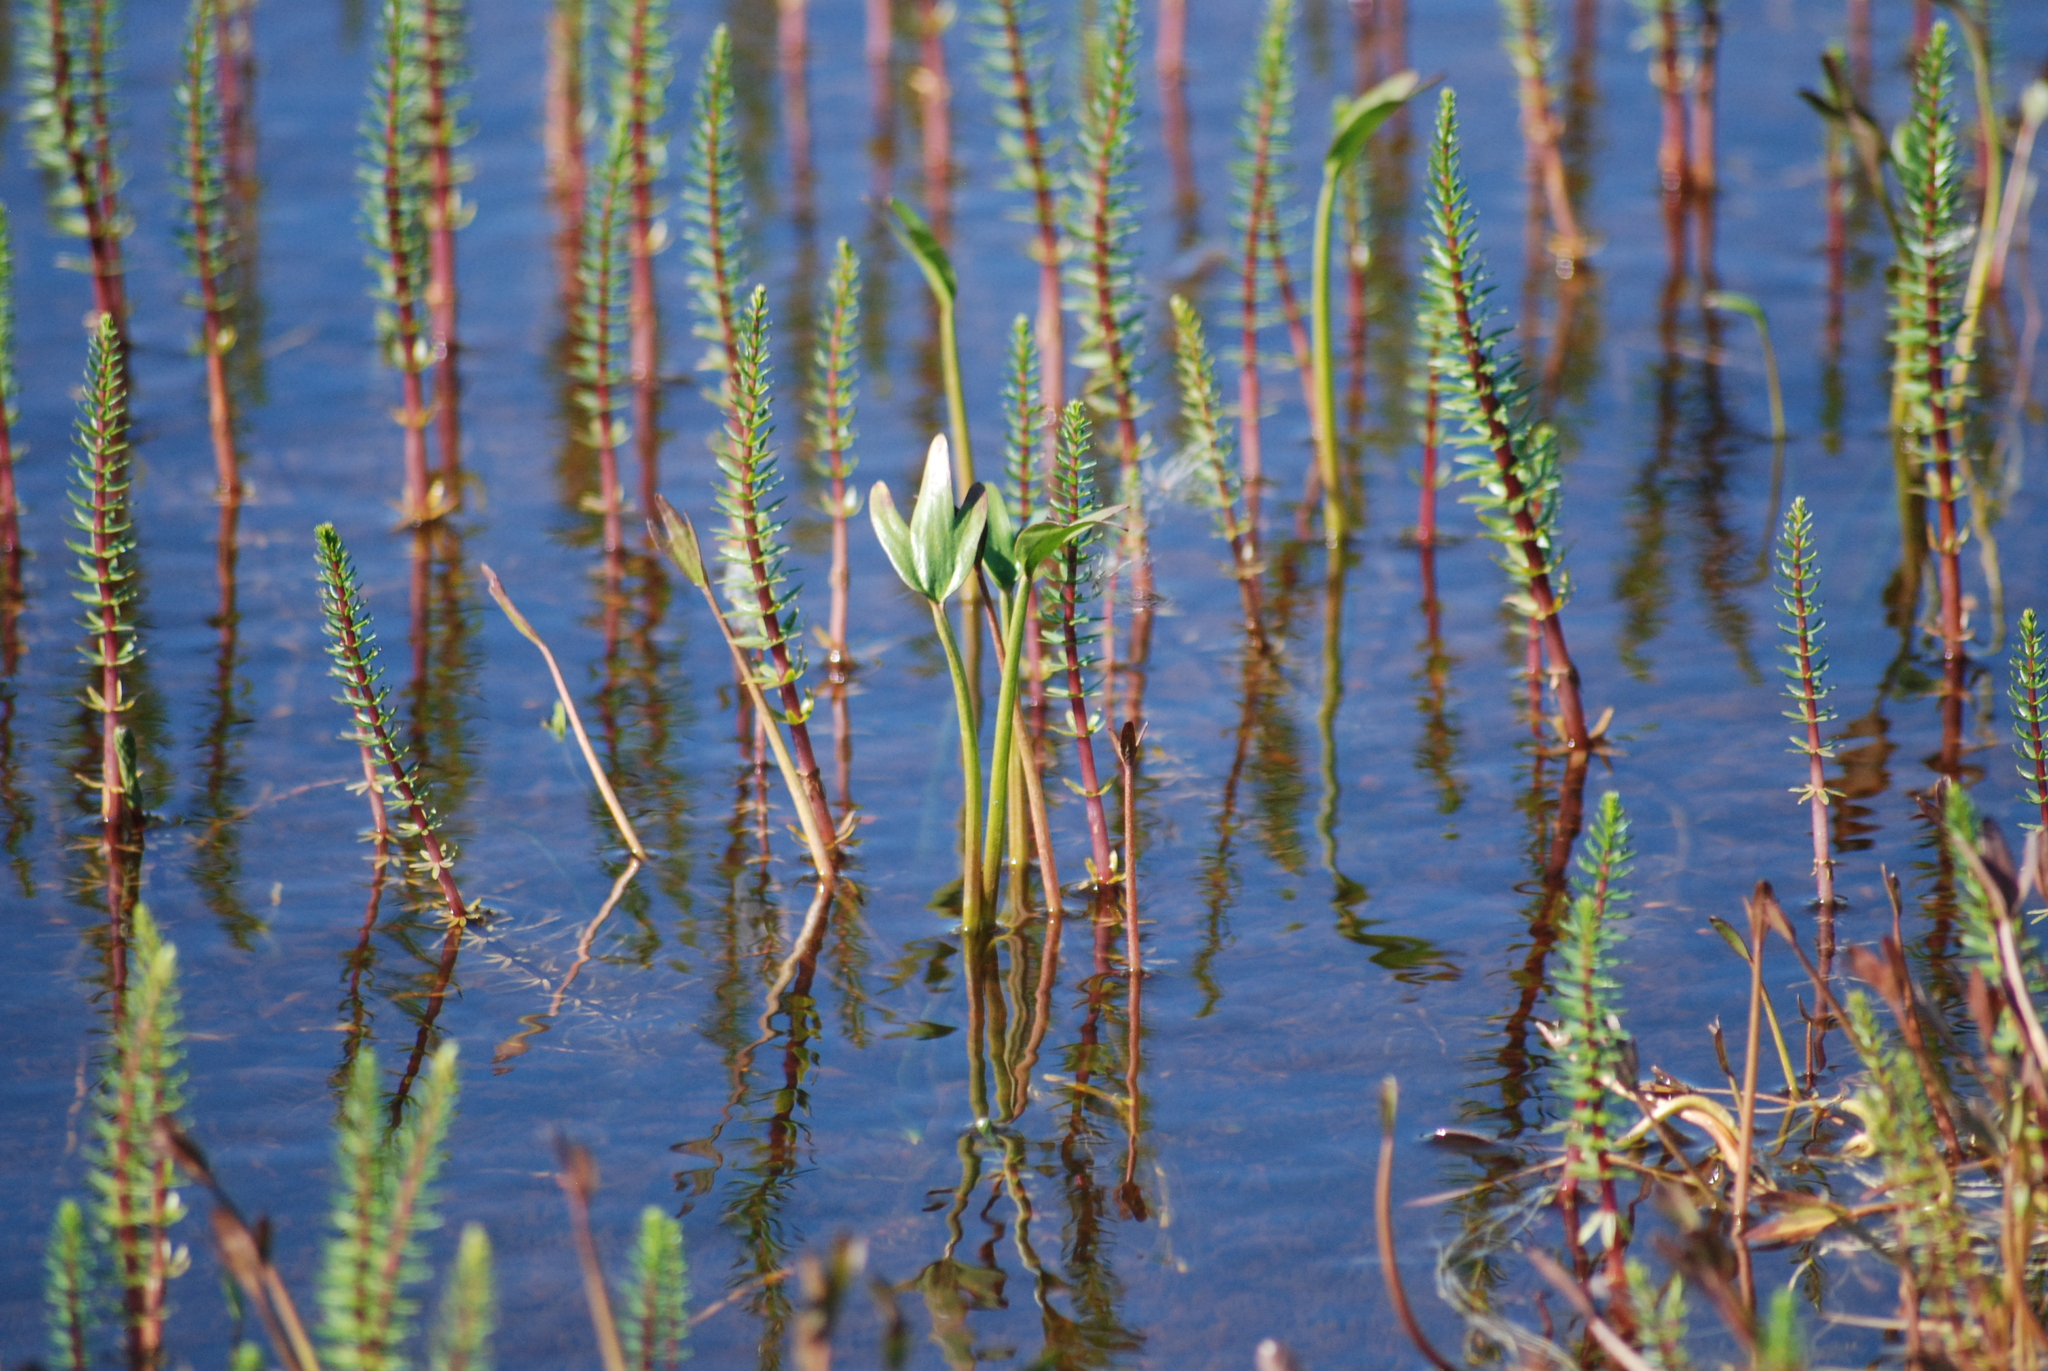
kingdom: Plantae
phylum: Tracheophyta
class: Magnoliopsida
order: Ranunculales
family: Ranunculaceae
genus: Coptidium
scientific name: Coptidium pallasii
